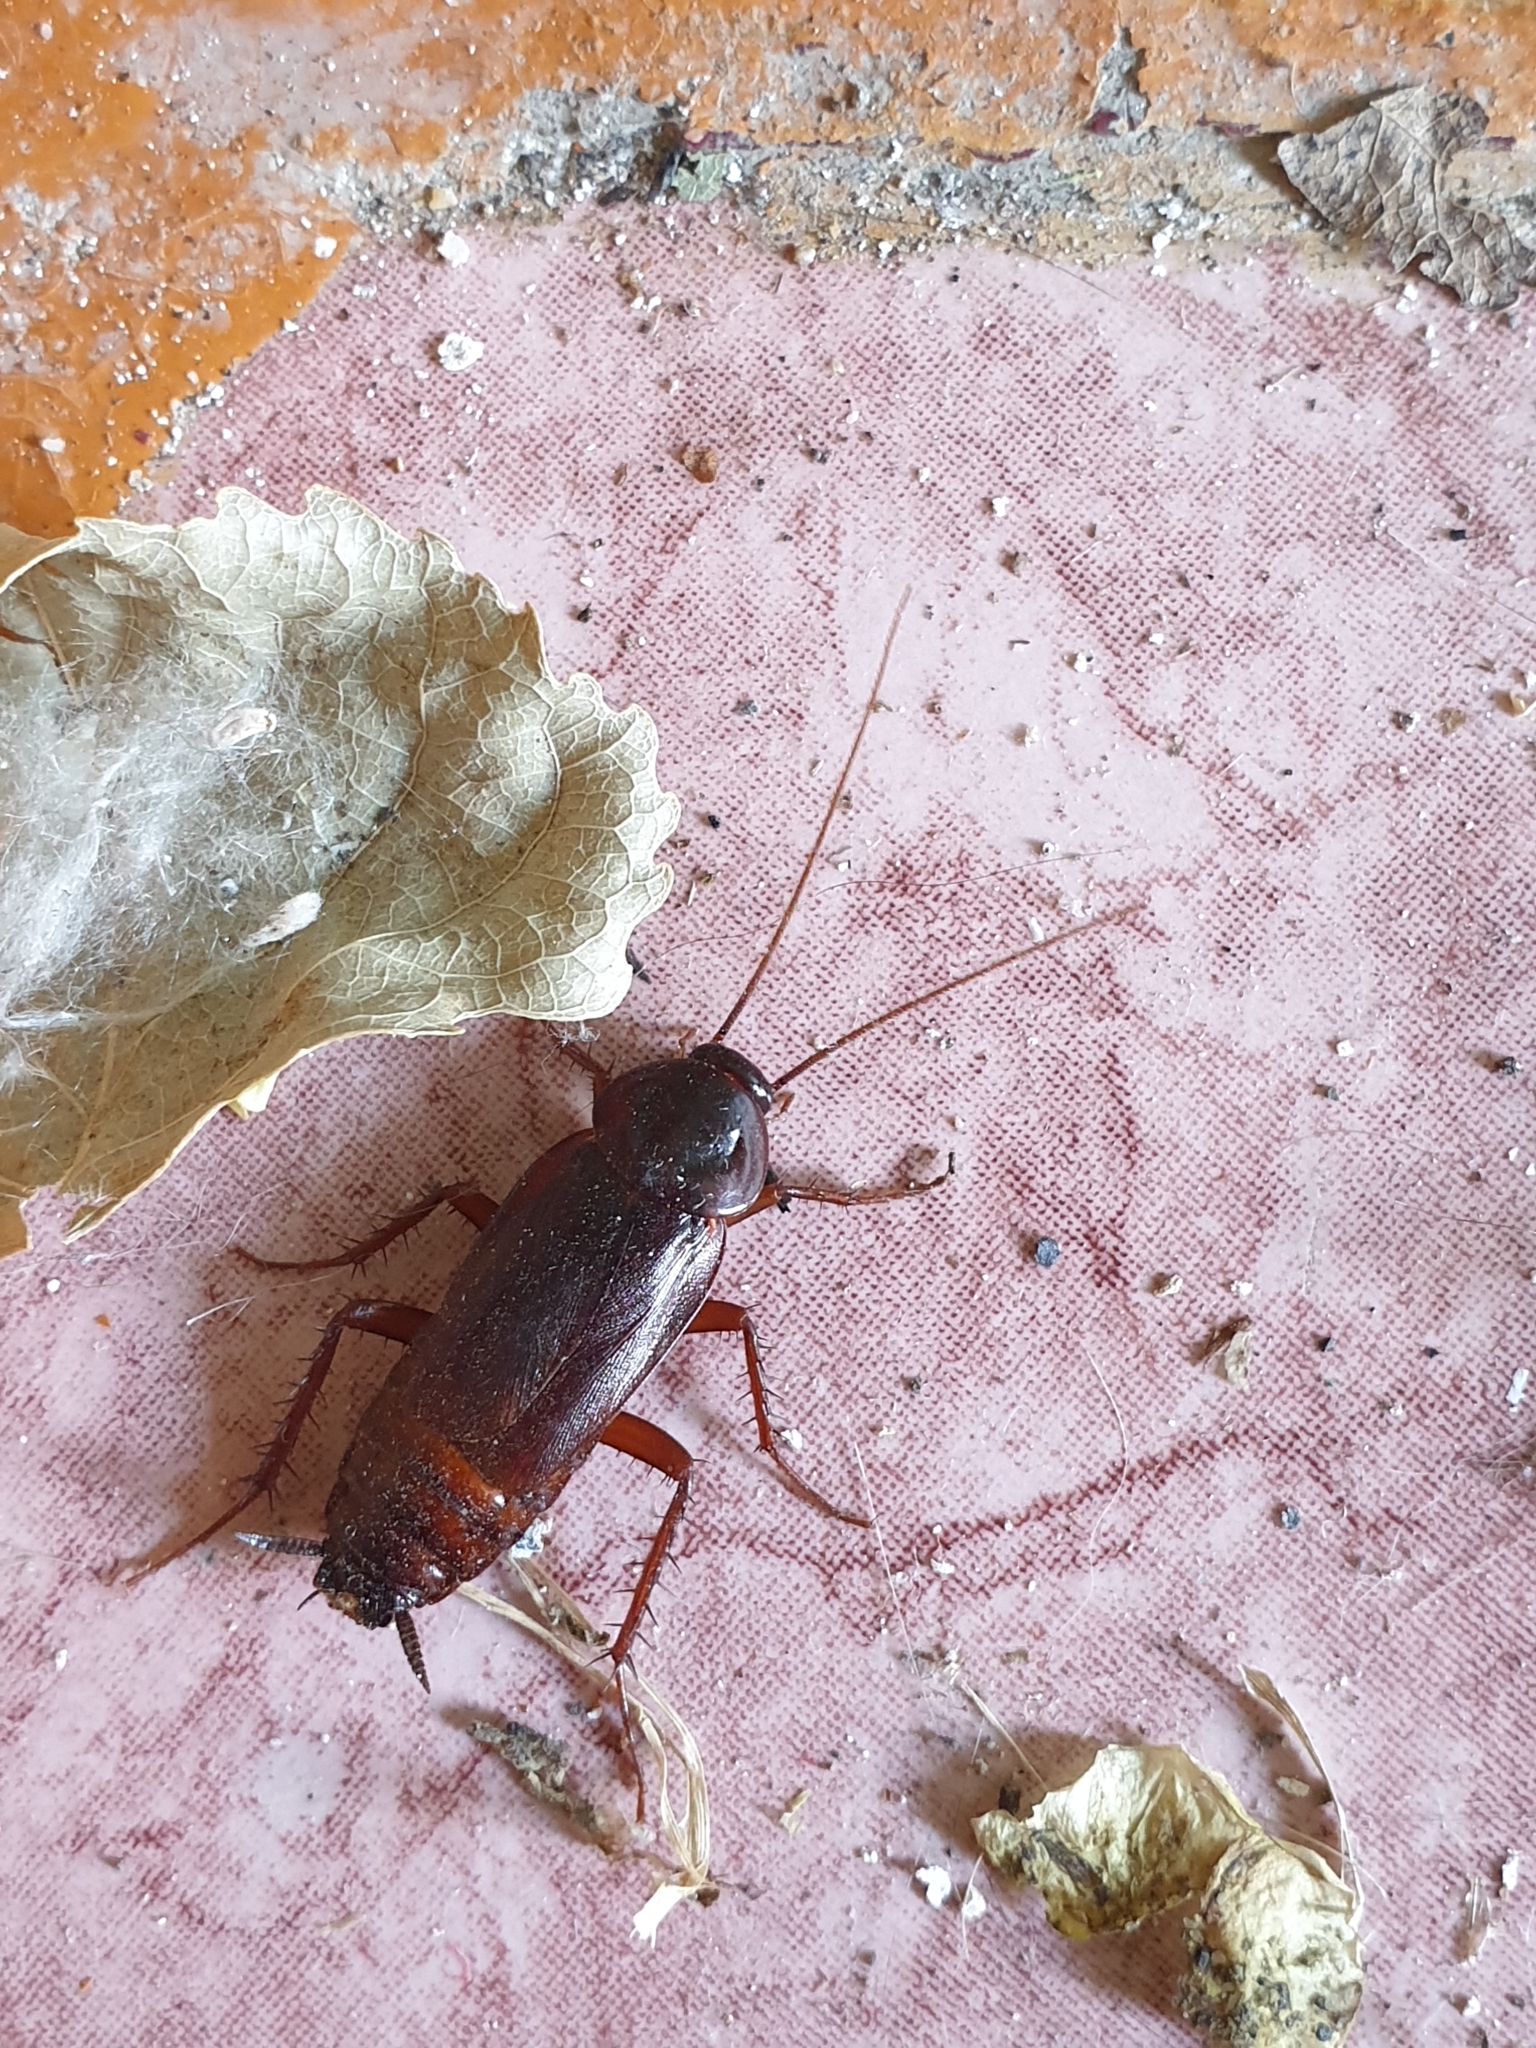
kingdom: Animalia
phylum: Arthropoda
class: Insecta
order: Blattodea
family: Blattidae
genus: Blatta
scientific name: Blatta orientalis
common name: Oriental cockroach
